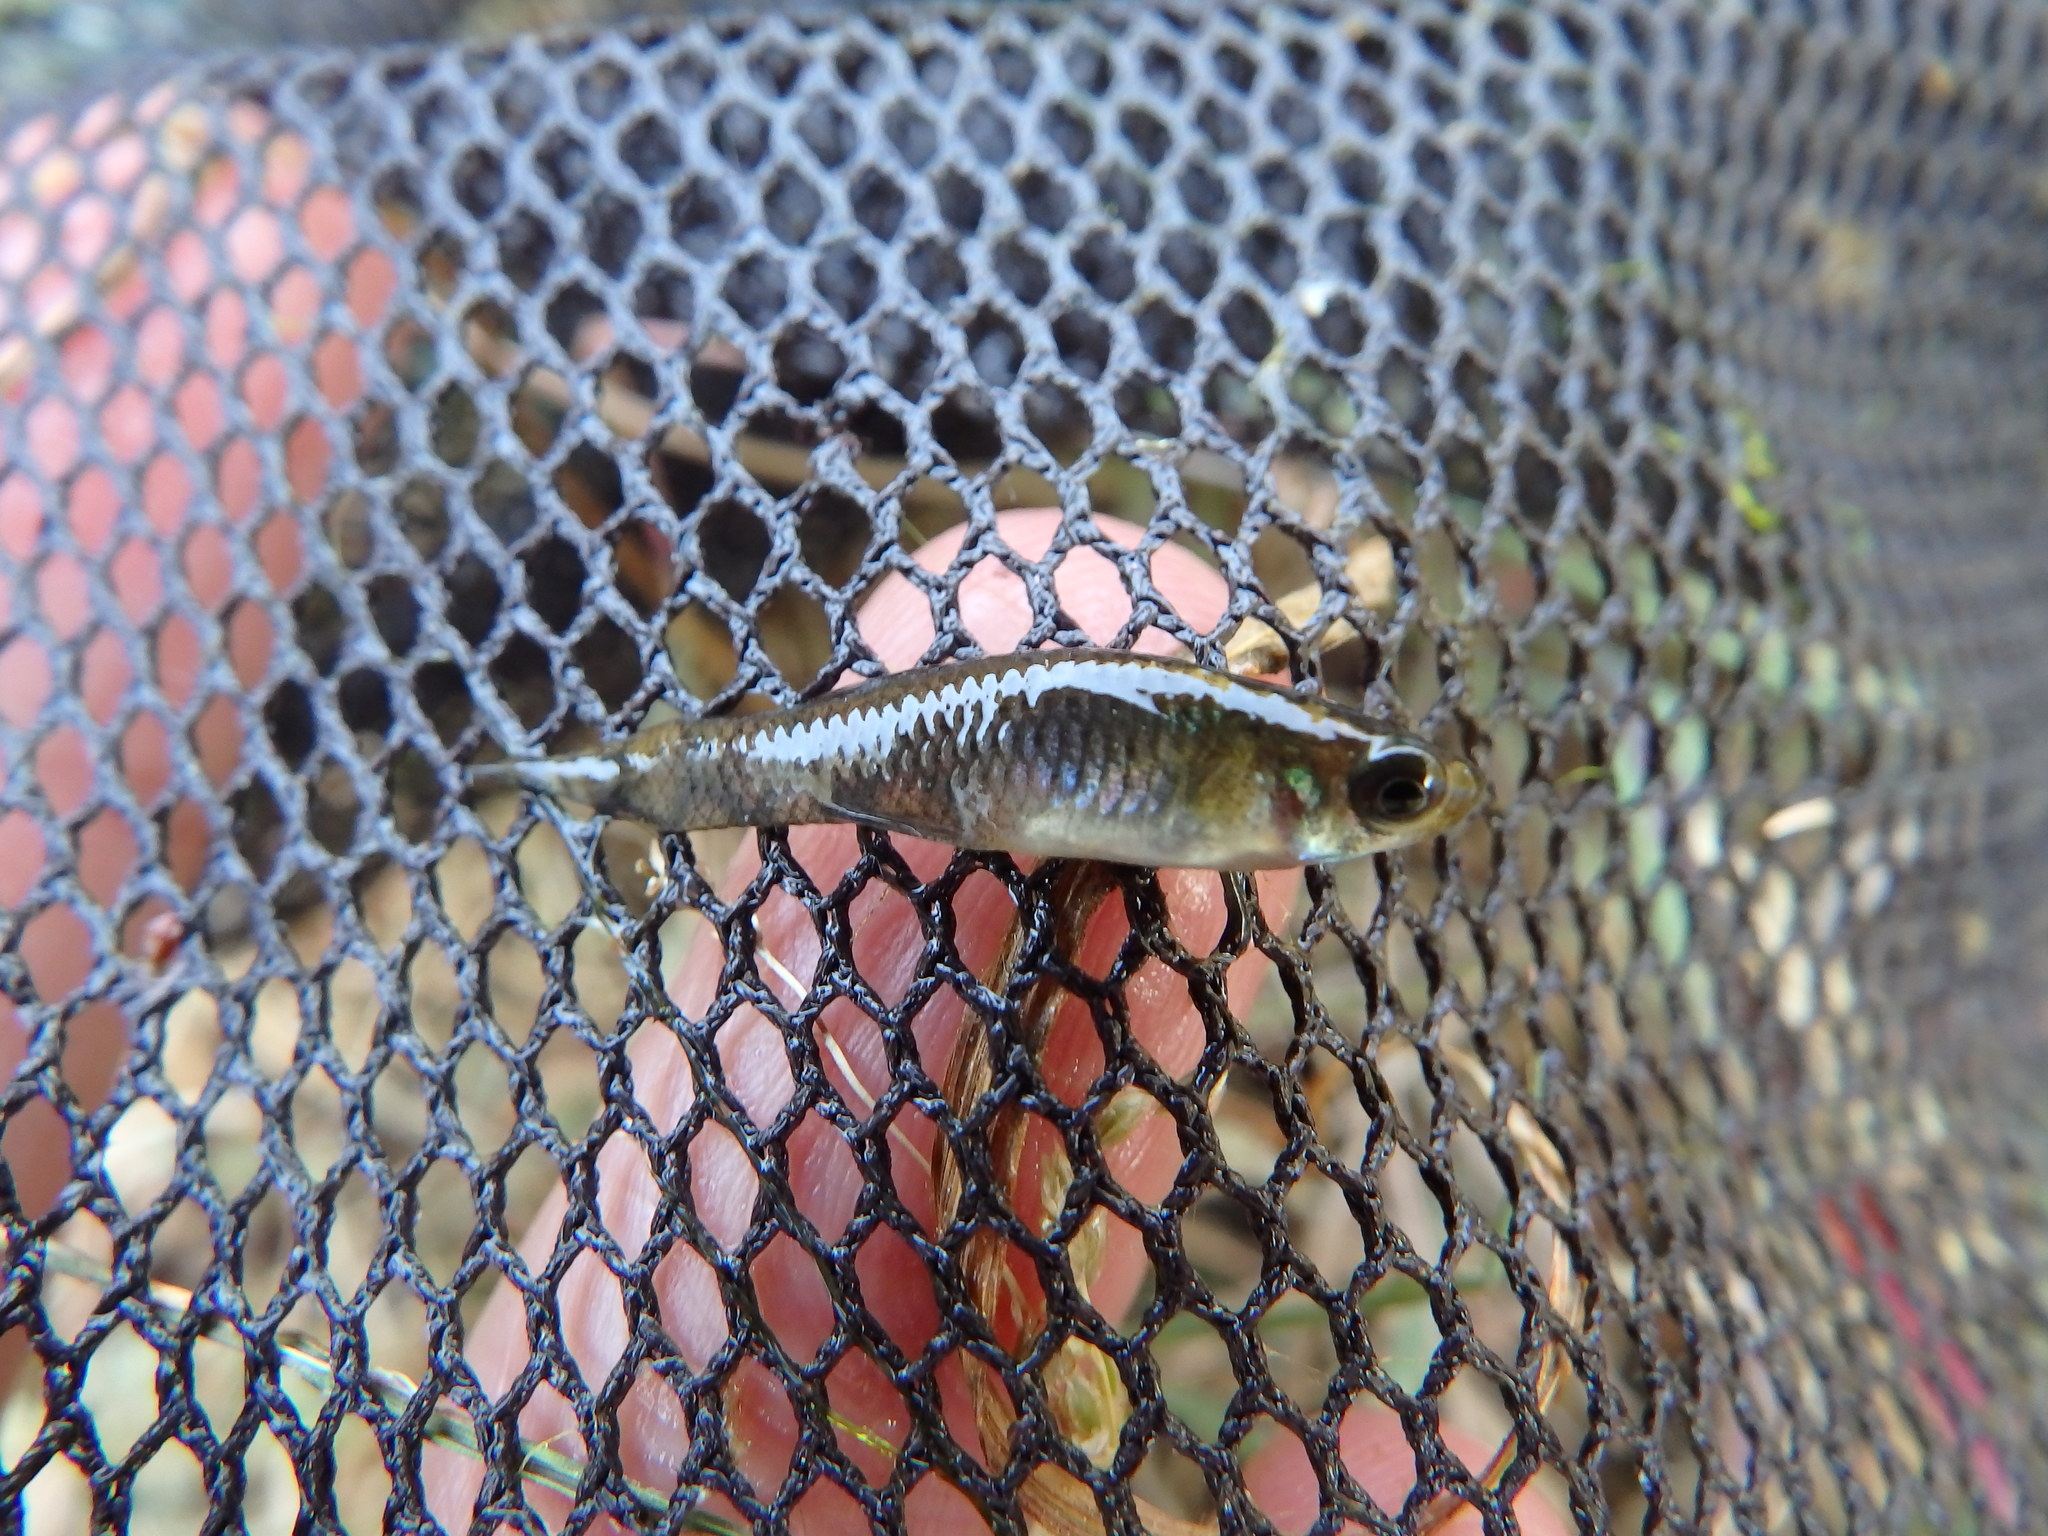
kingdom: Animalia
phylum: Chordata
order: Cyprinodontiformes
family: Poeciliidae
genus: Gambusia
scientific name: Gambusia holbrooki
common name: Eastern mosquitofish
